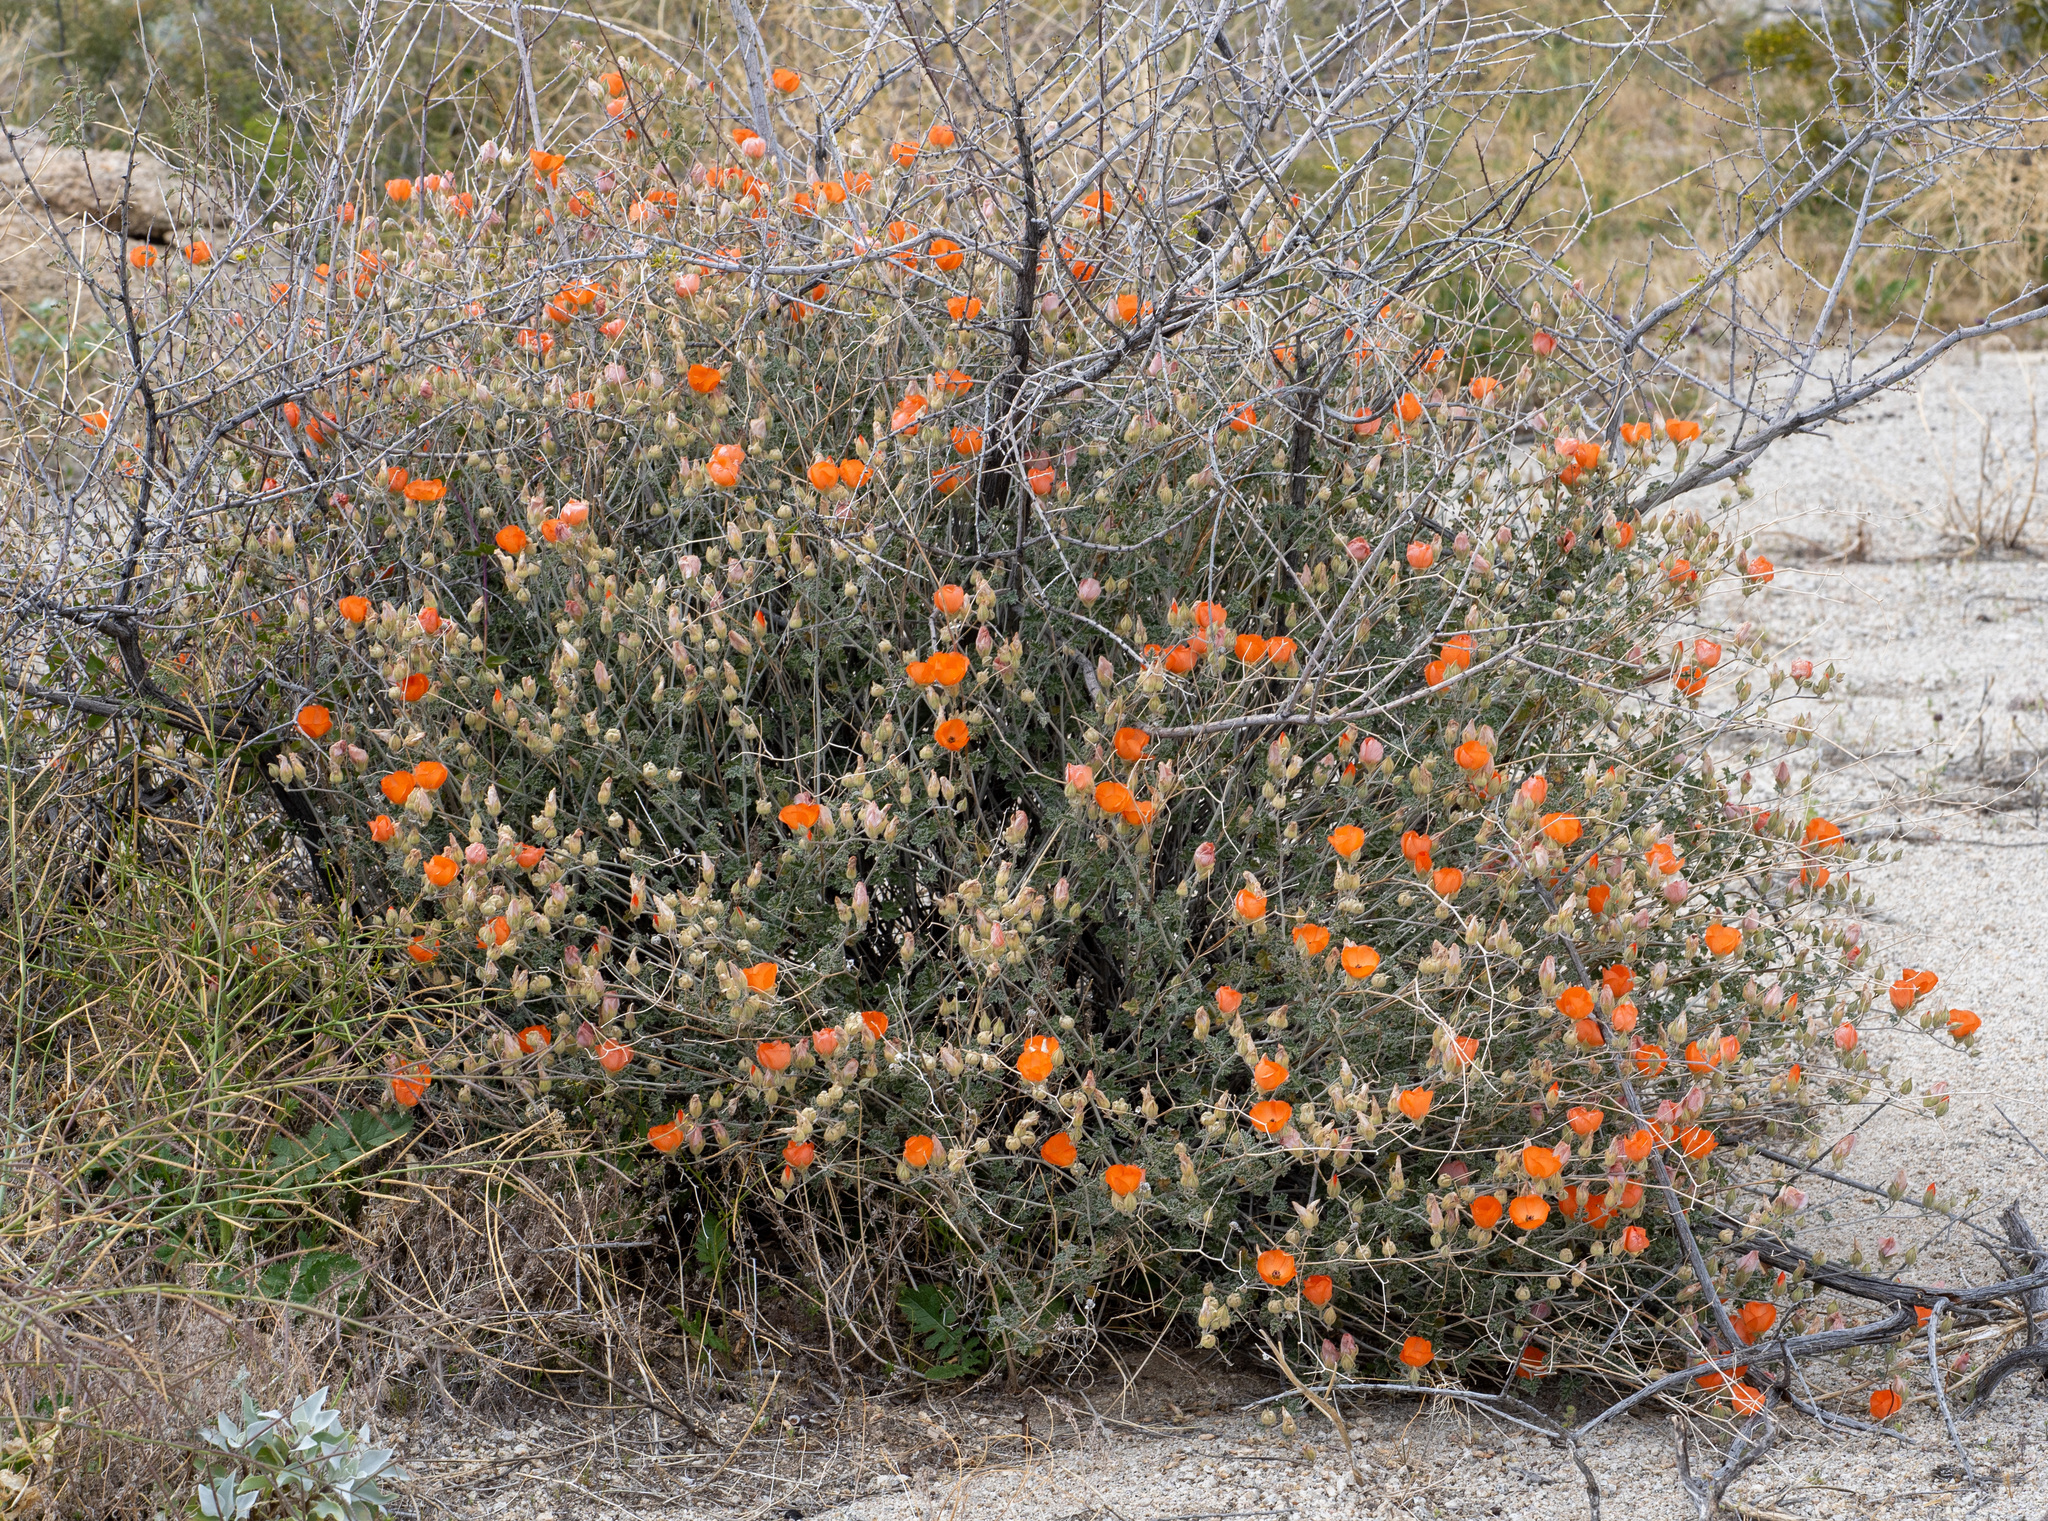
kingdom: Plantae
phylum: Tracheophyta
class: Magnoliopsida
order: Malvales
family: Malvaceae
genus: Sphaeralcea
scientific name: Sphaeralcea ambigua
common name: Apricot globe-mallow
